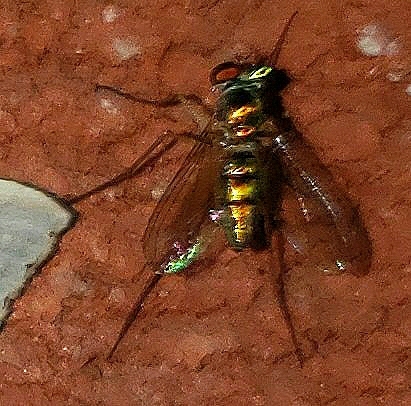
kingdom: Animalia
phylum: Arthropoda
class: Insecta
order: Diptera
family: Dolichopodidae
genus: Amblypsilopus
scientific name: Amblypsilopus scintillans
